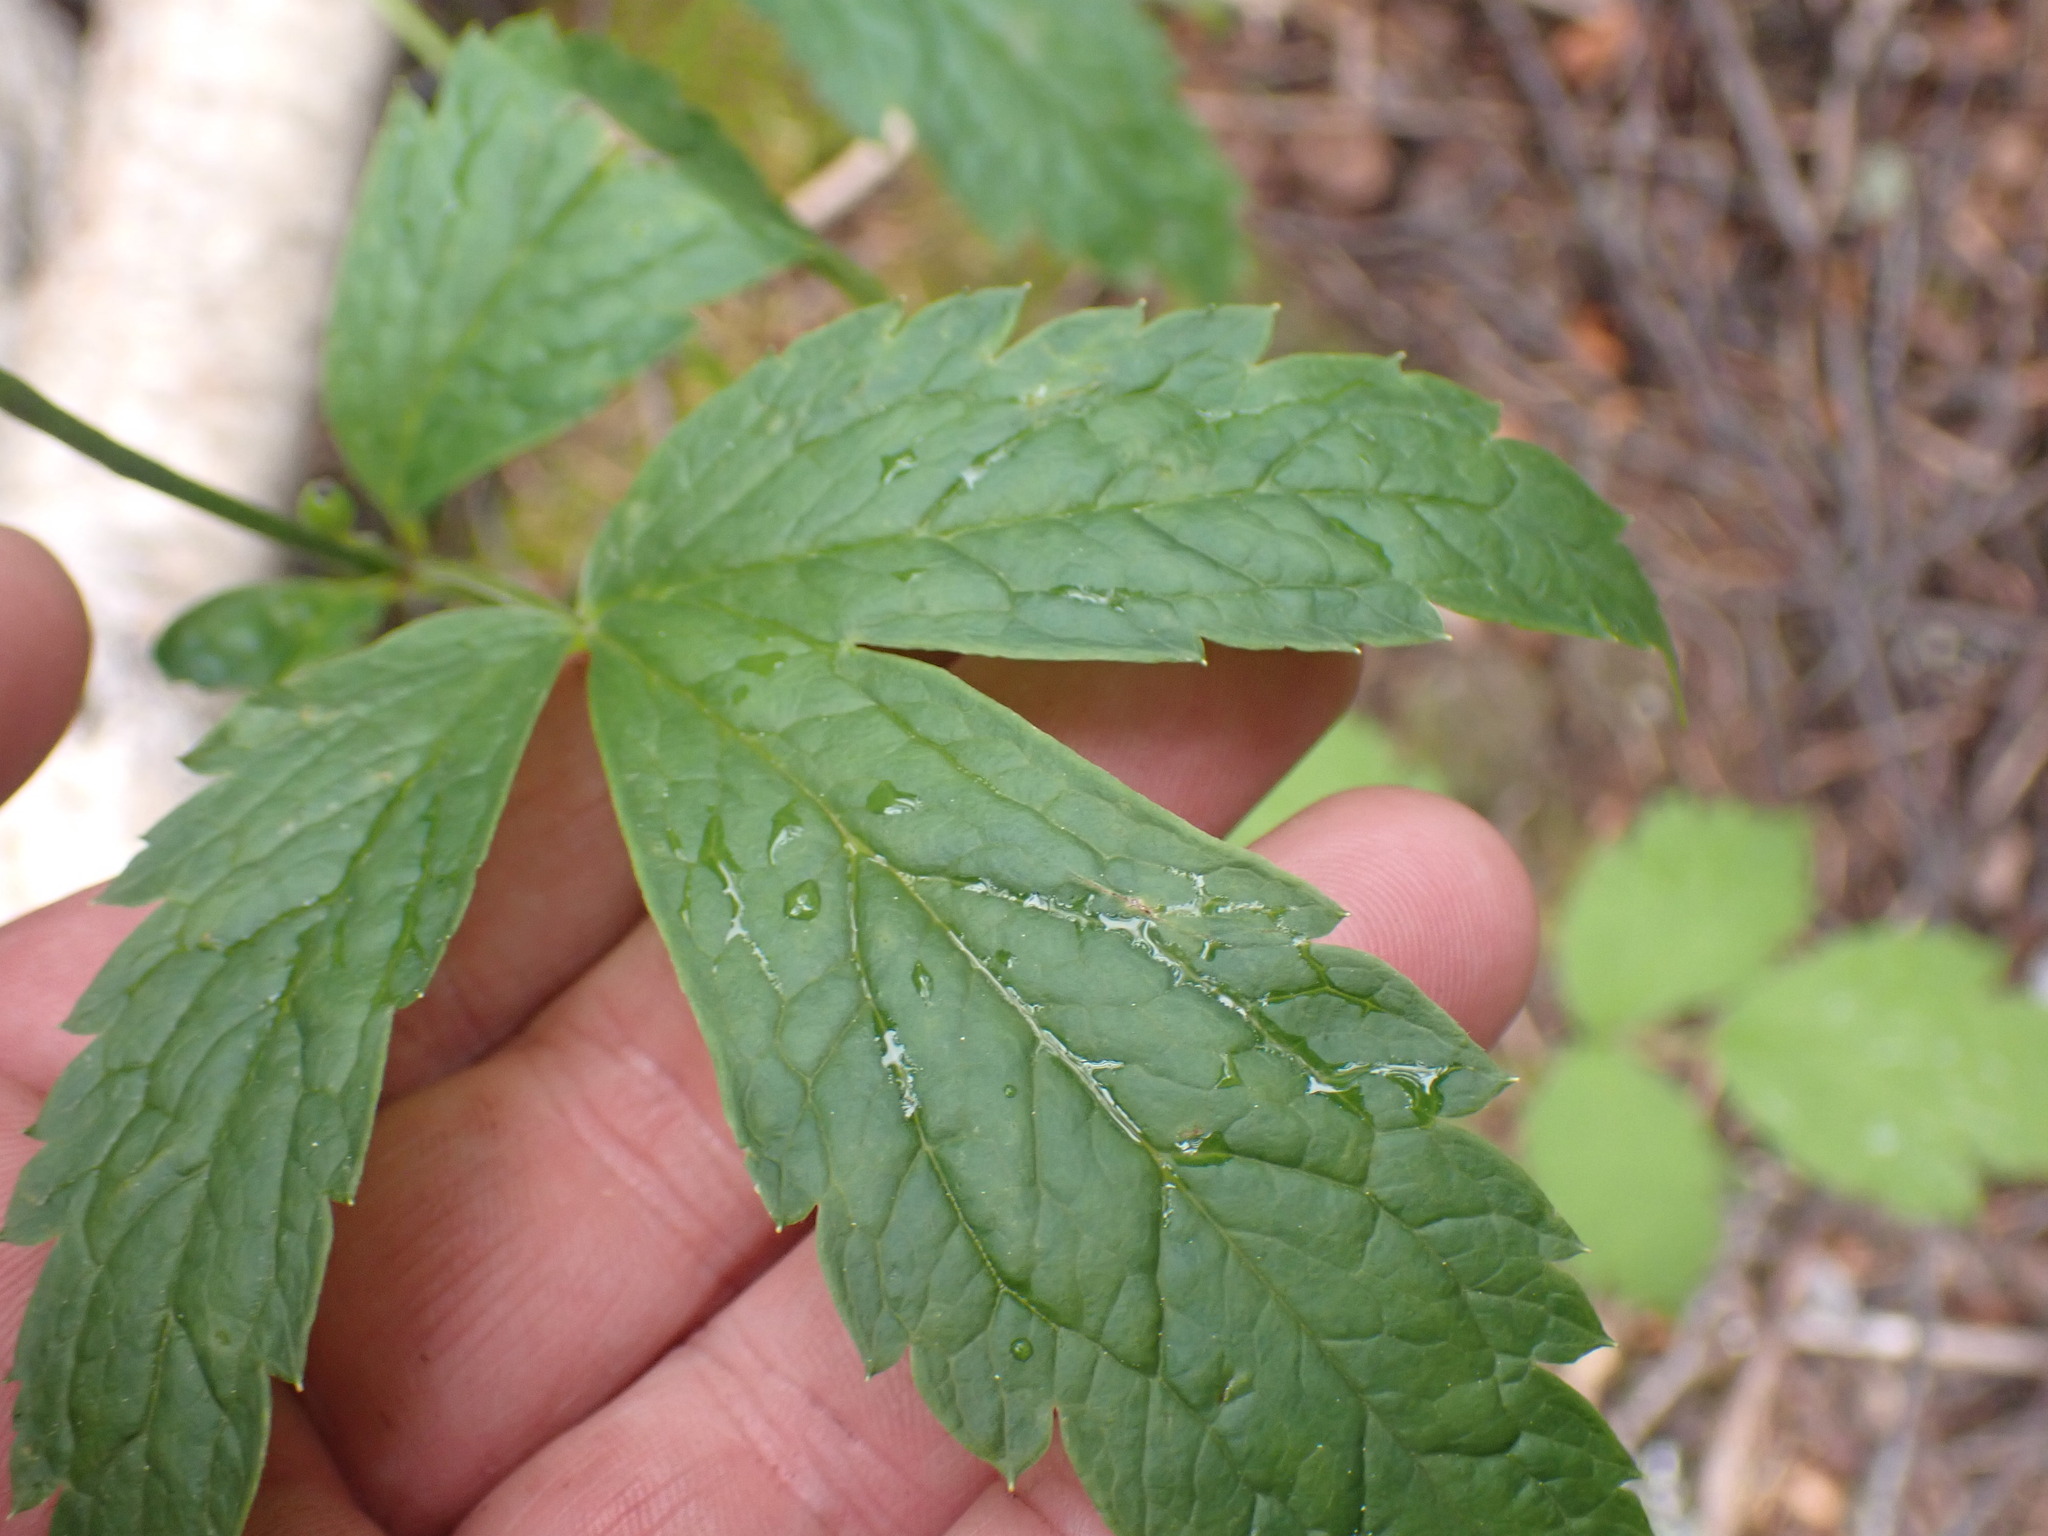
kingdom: Plantae
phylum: Tracheophyta
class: Magnoliopsida
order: Ranunculales
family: Ranunculaceae
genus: Actaea
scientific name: Actaea rubra
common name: Red baneberry
